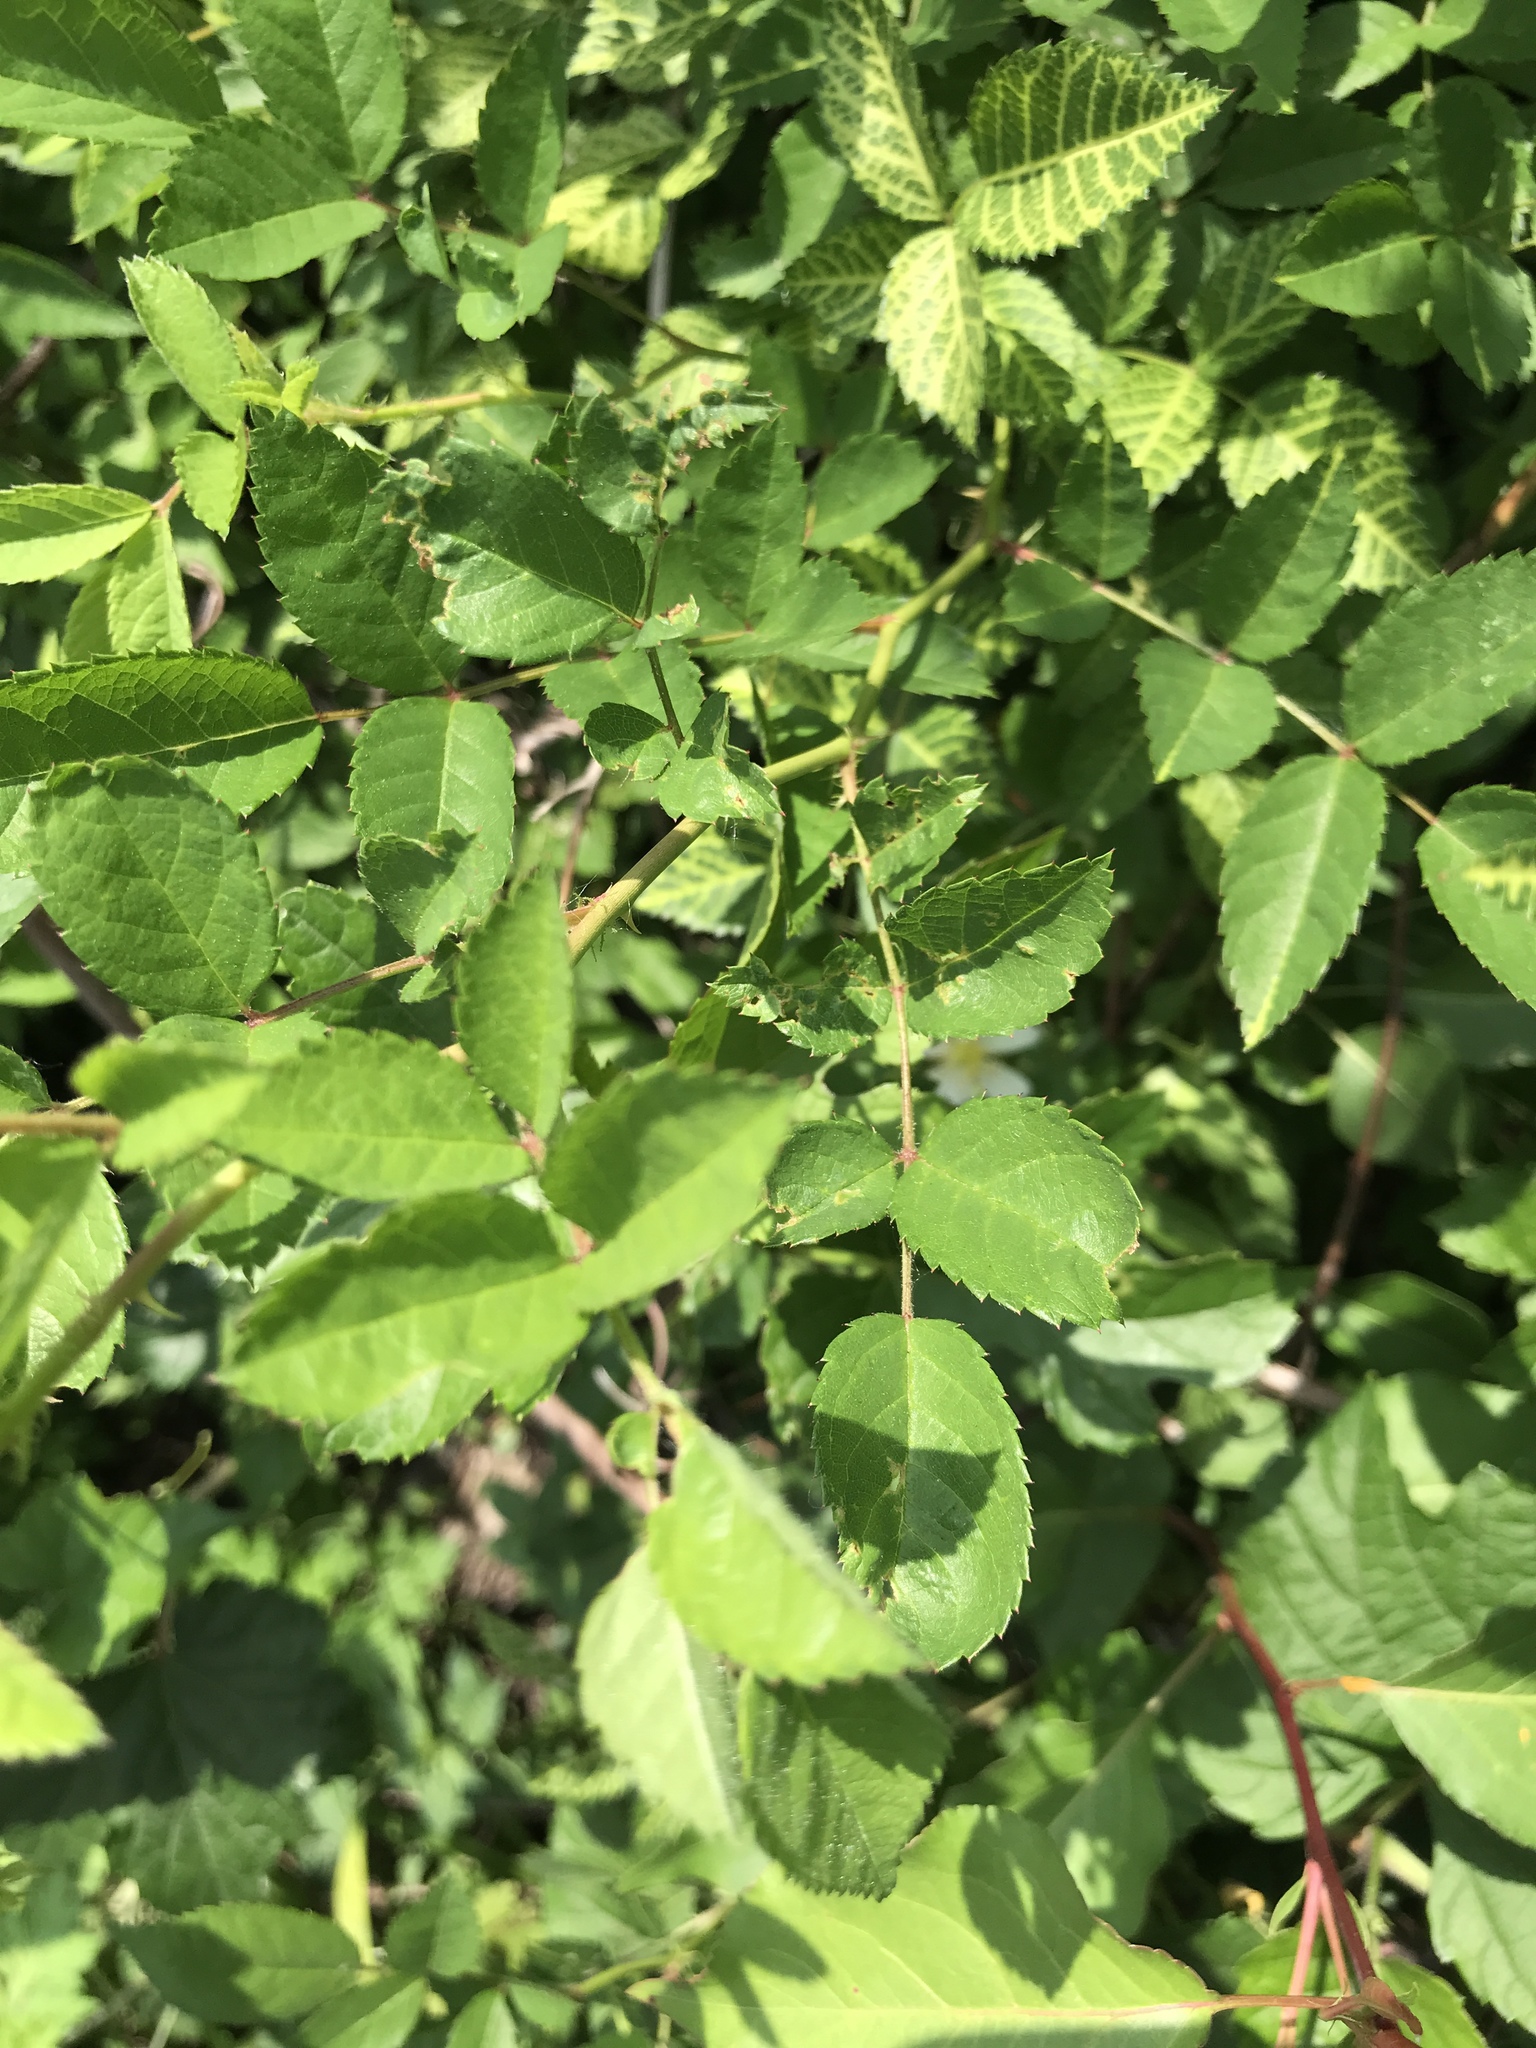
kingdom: Plantae
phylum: Tracheophyta
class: Magnoliopsida
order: Rosales
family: Rosaceae
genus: Rosa
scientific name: Rosa multiflora
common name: Multiflora rose
